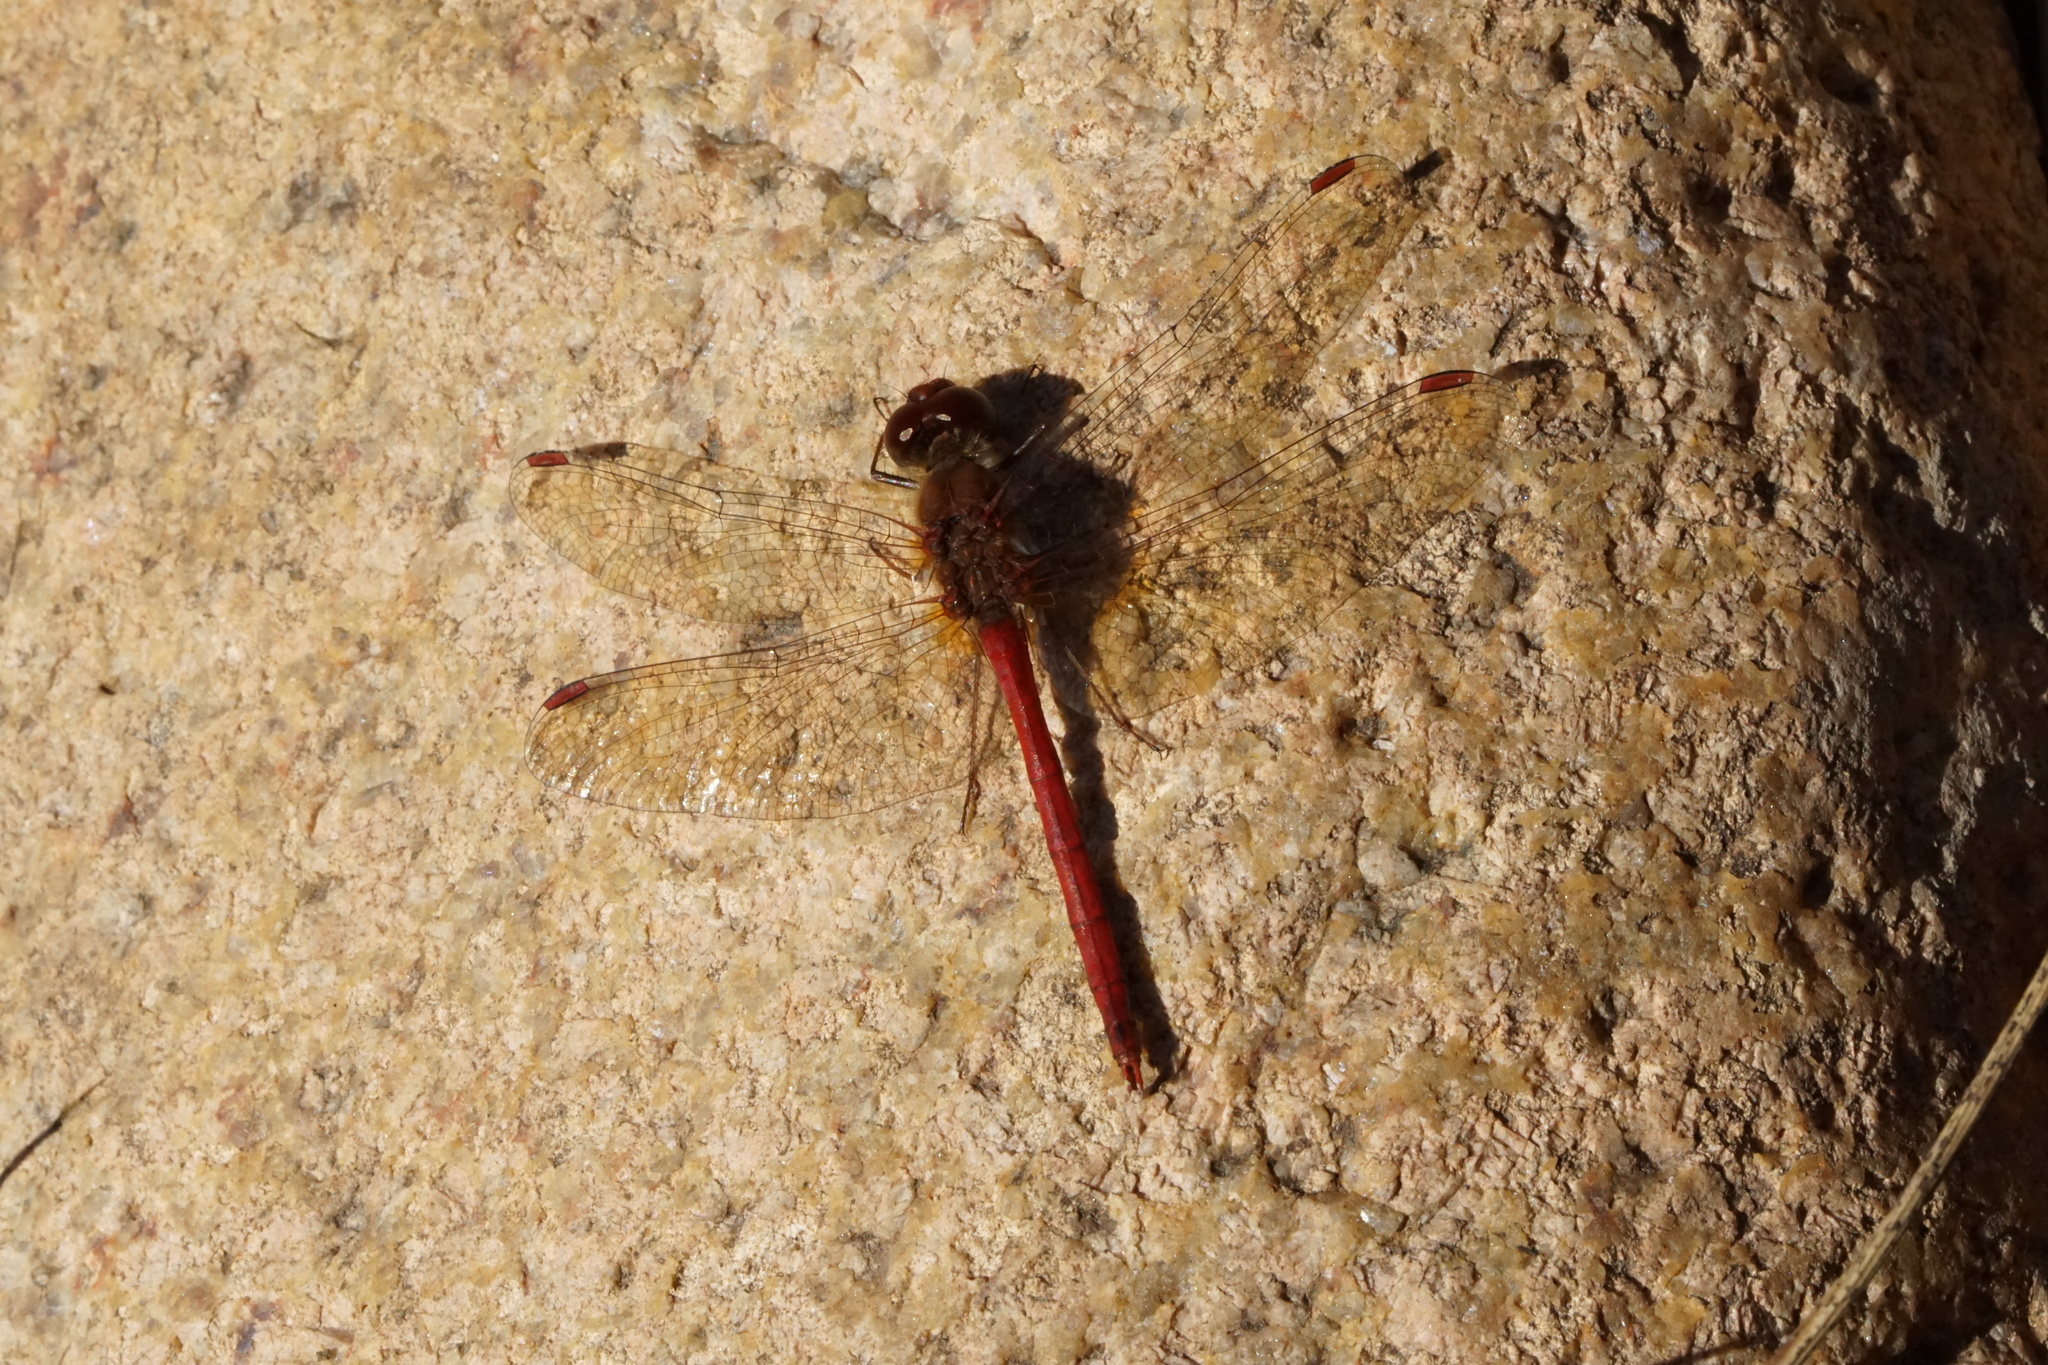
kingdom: Animalia
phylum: Arthropoda
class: Insecta
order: Odonata
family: Libellulidae
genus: Sympetrum
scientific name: Sympetrum vicinum
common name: Autumn meadowhawk
